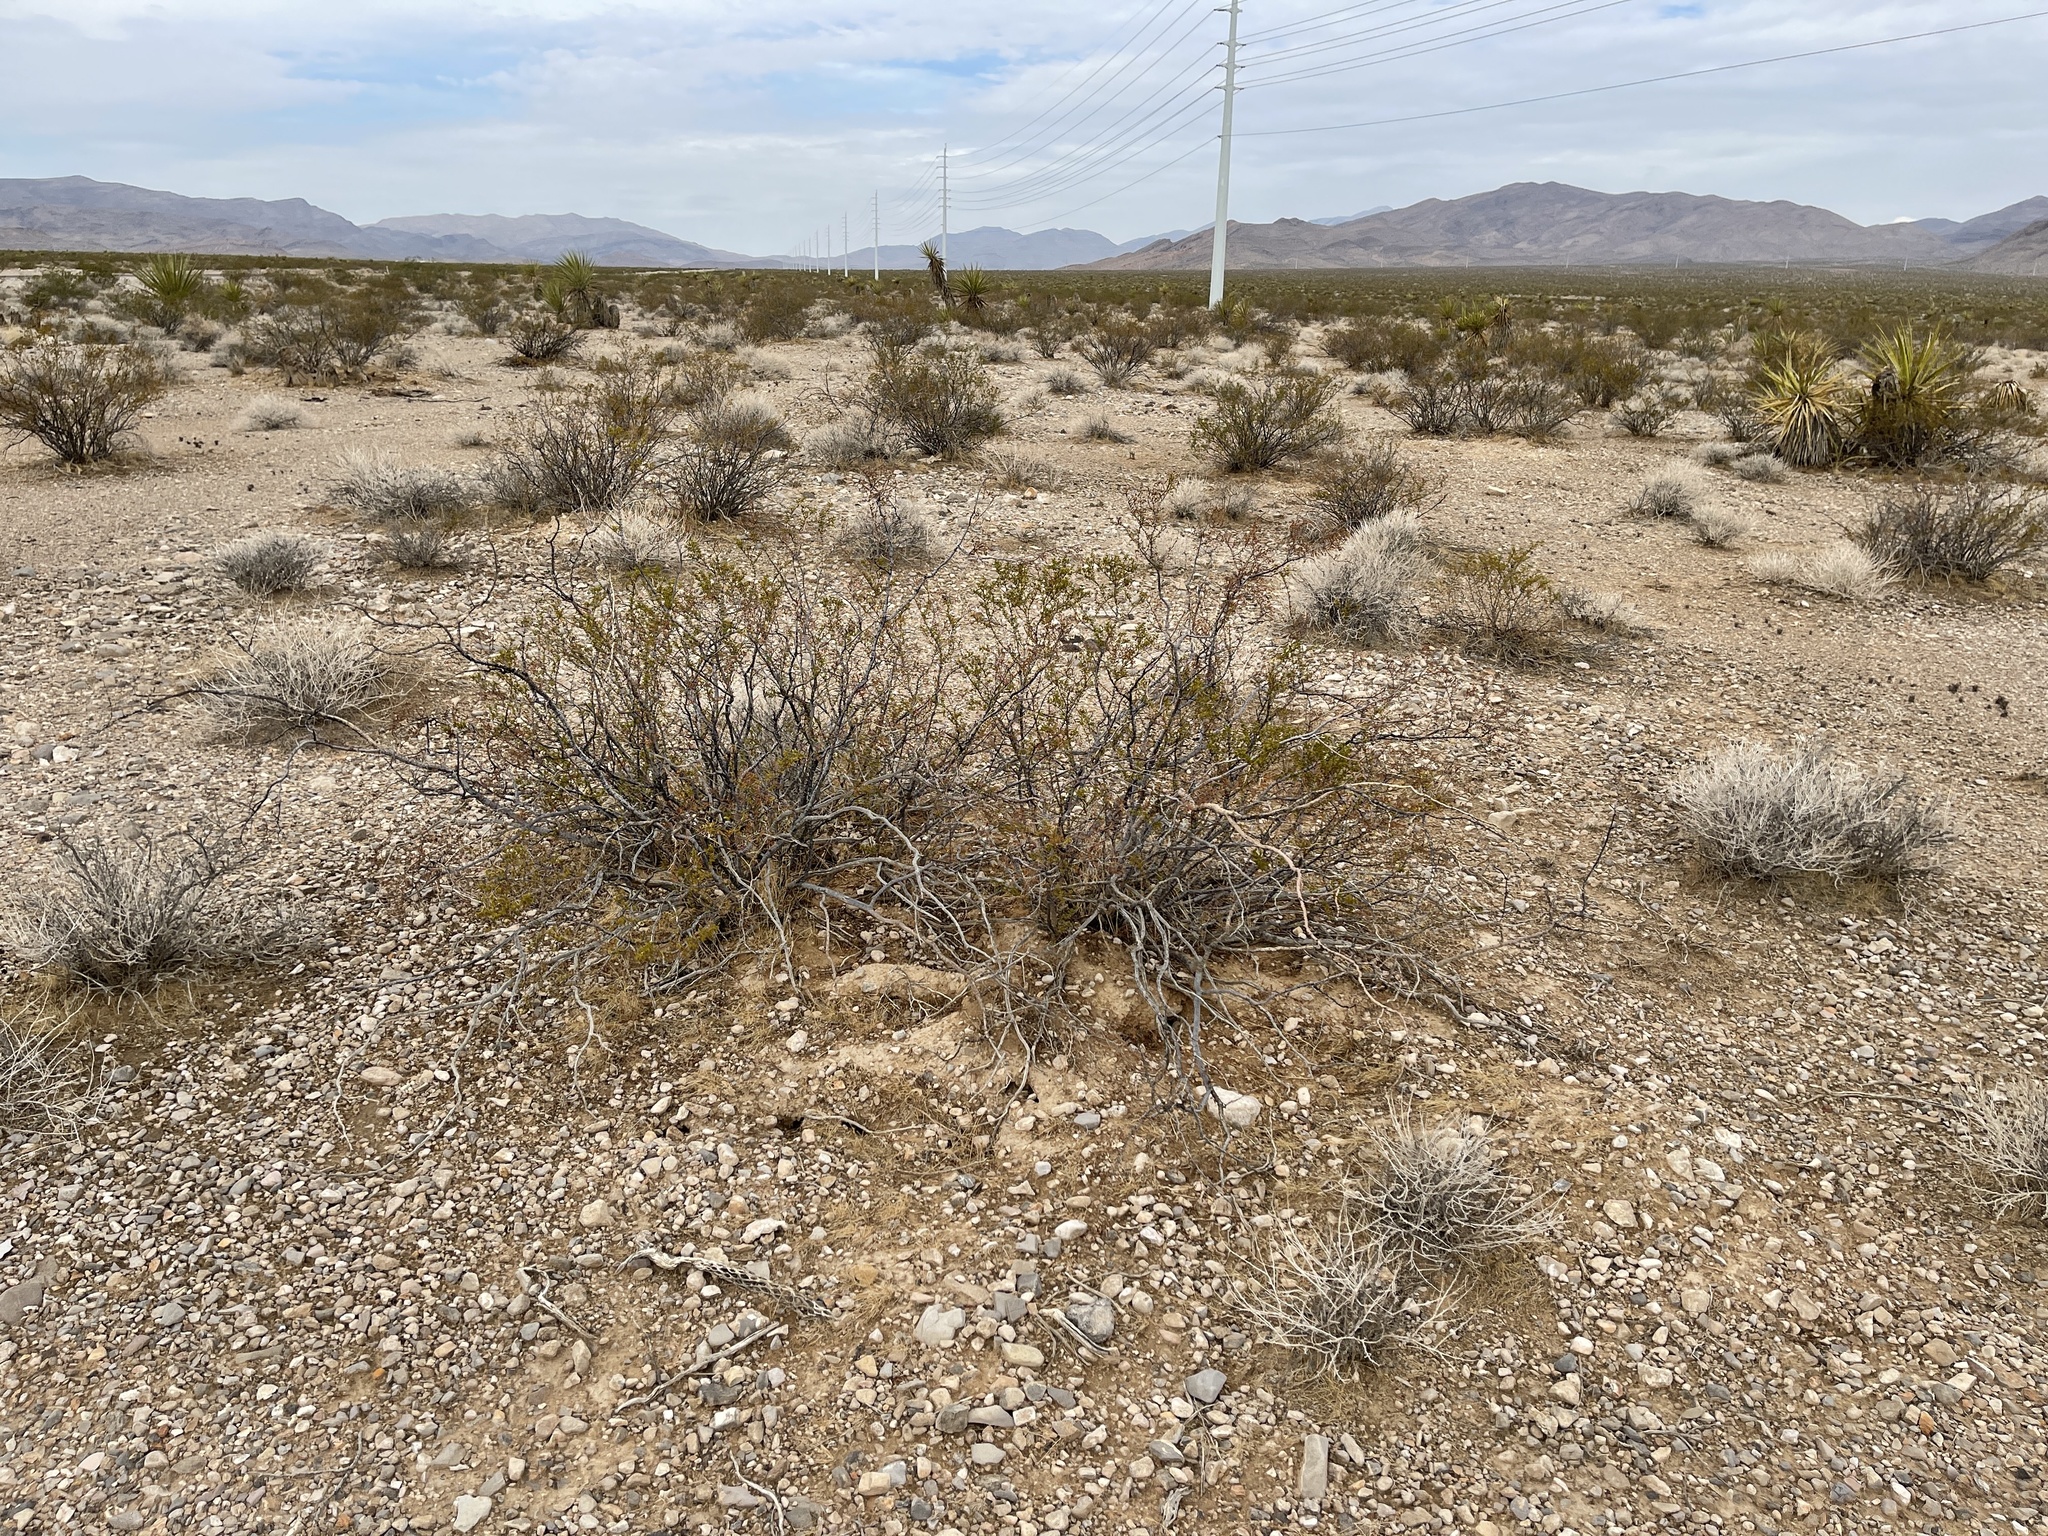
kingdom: Plantae
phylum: Tracheophyta
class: Magnoliopsida
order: Zygophyllales
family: Zygophyllaceae
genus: Larrea
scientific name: Larrea tridentata
